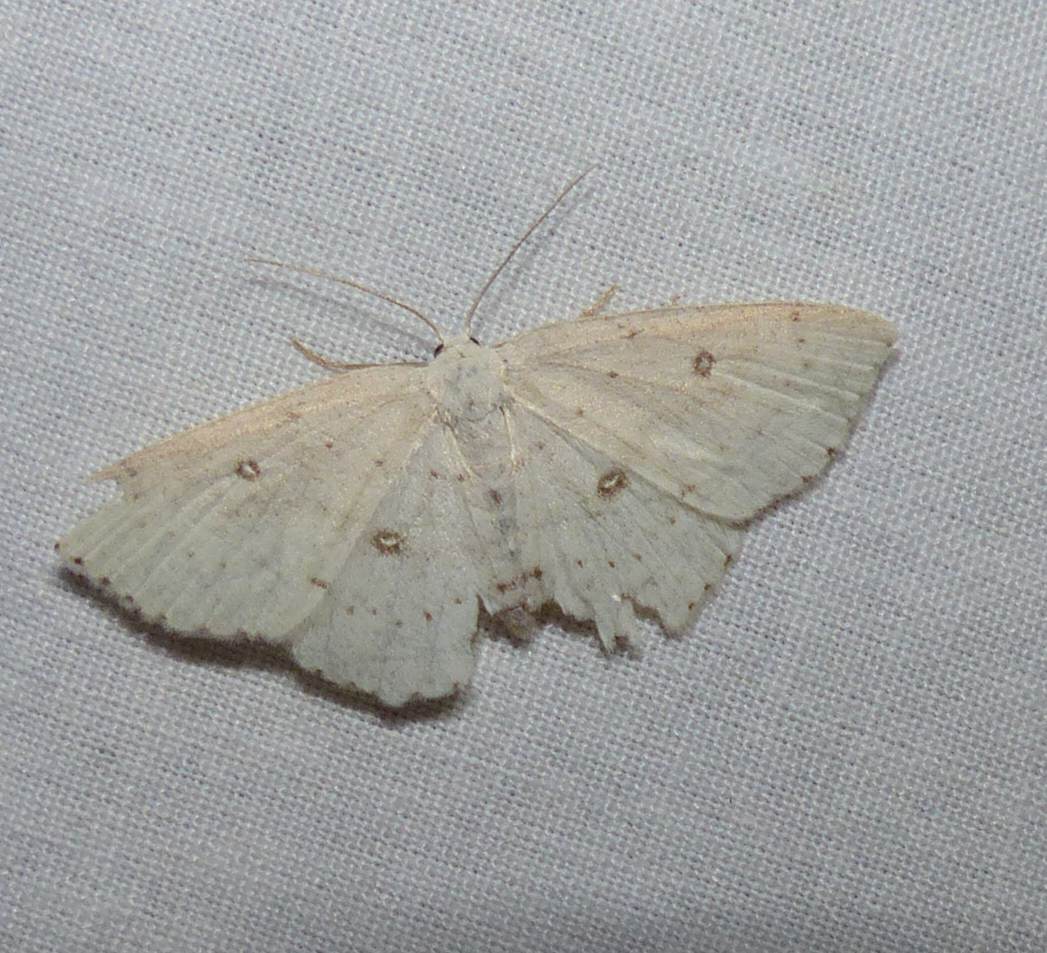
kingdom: Animalia
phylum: Arthropoda
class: Insecta
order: Lepidoptera
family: Geometridae
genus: Cyclophora
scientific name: Cyclophora pendulinaria
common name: Sweet fern geometer
